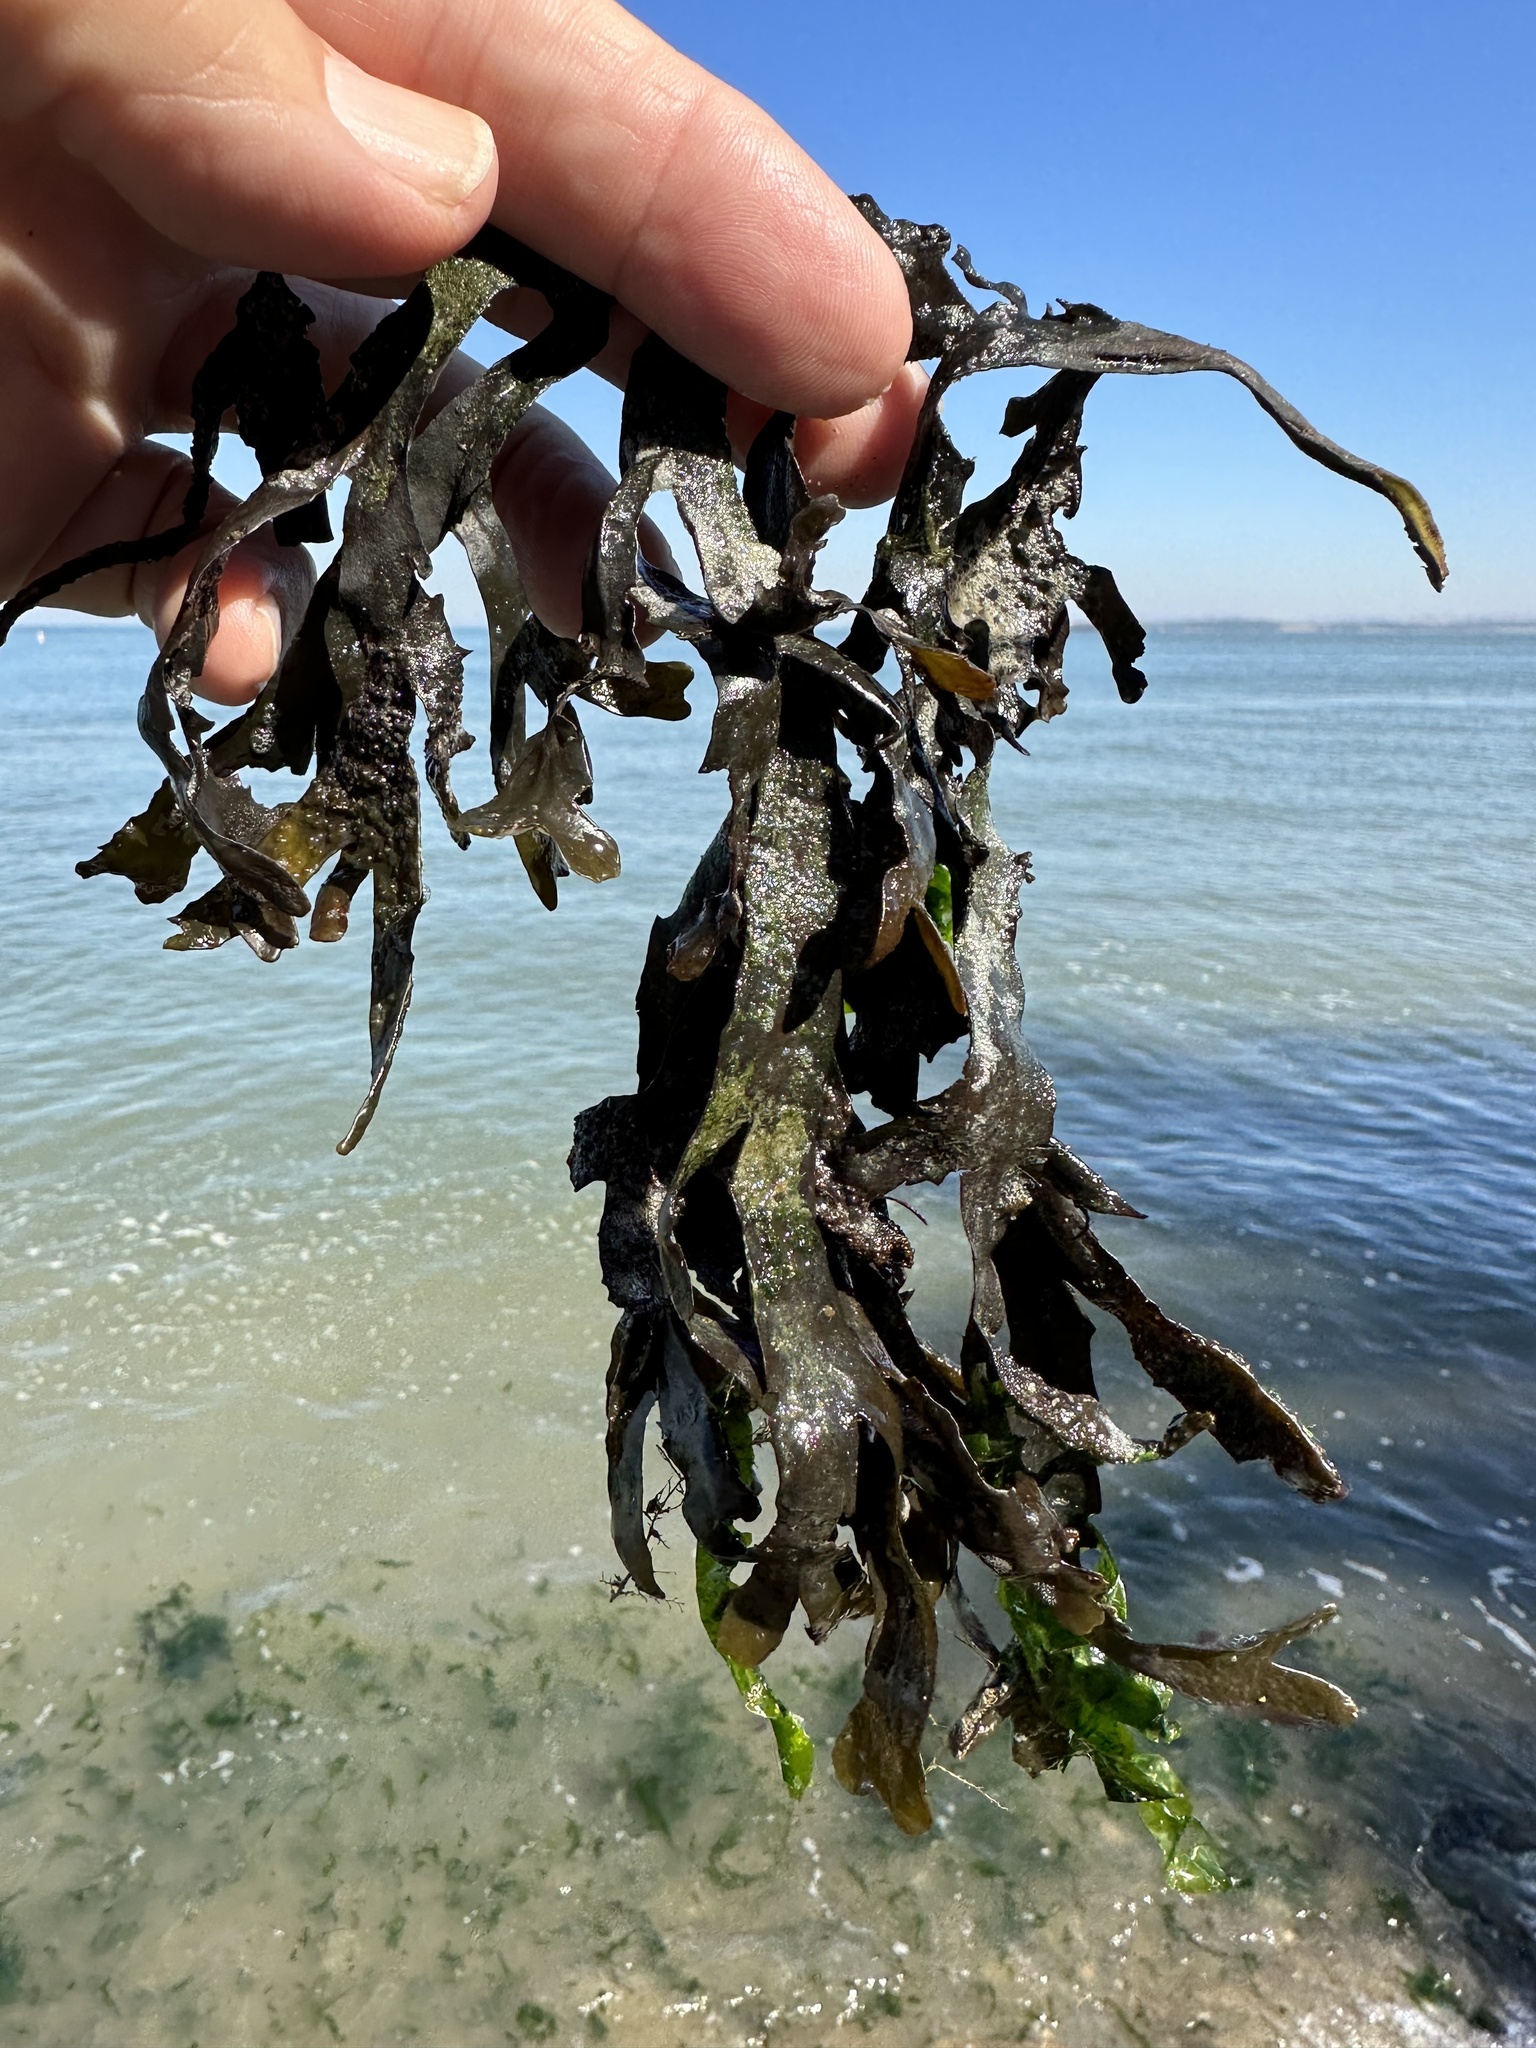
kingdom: Chromista
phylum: Ochrophyta
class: Phaeophyceae
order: Fucales
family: Fucaceae
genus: Fucus
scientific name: Fucus distichus
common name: Rockweed
